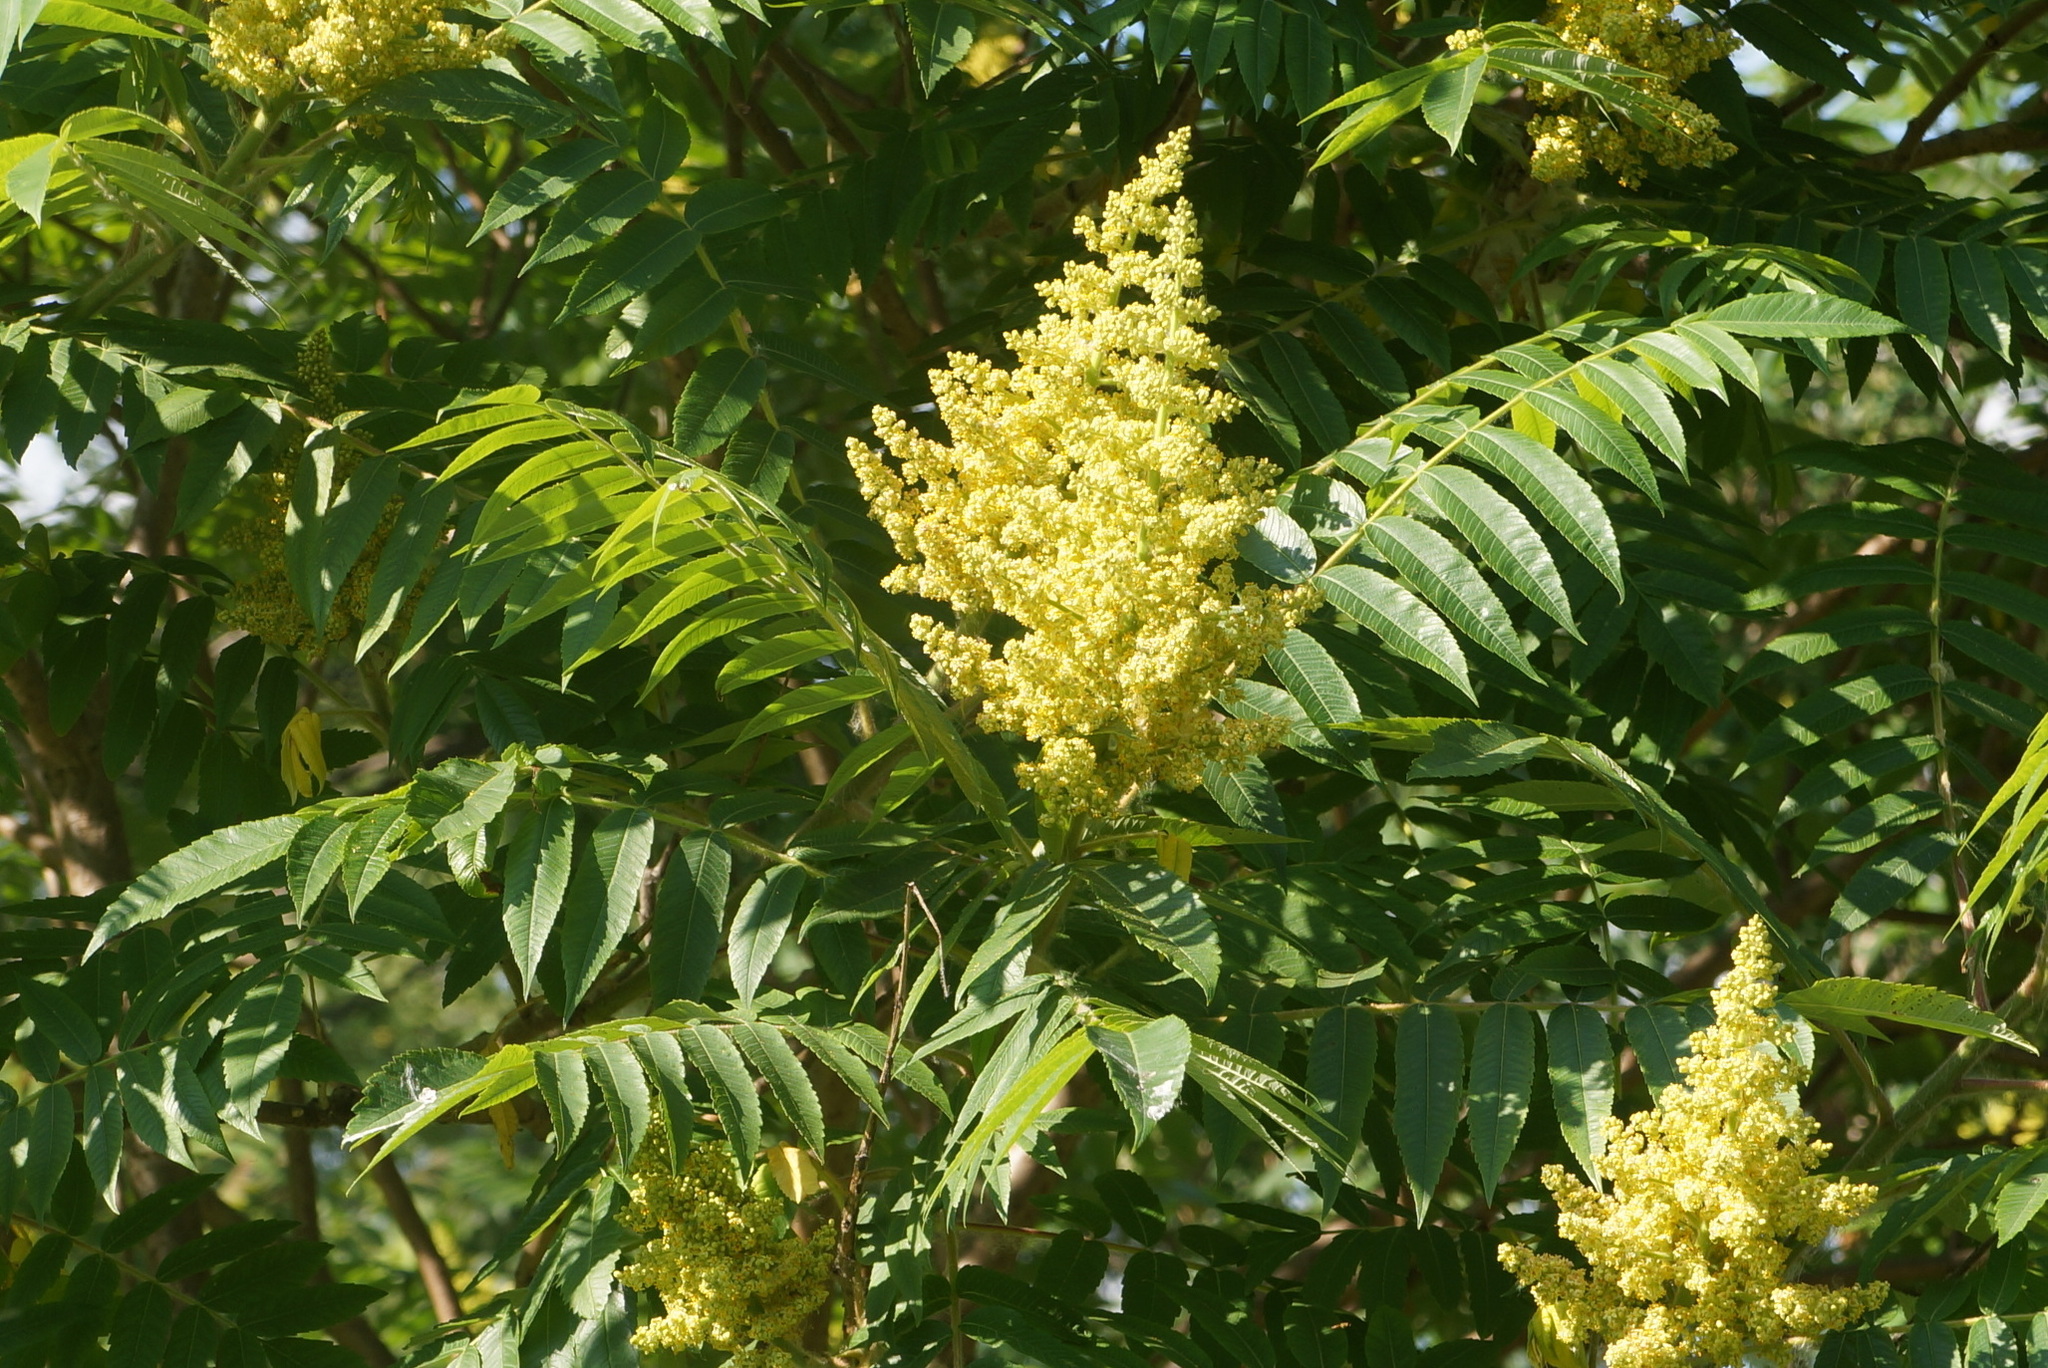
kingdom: Plantae
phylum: Tracheophyta
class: Magnoliopsida
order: Sapindales
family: Anacardiaceae
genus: Rhus
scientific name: Rhus typhina
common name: Staghorn sumac
